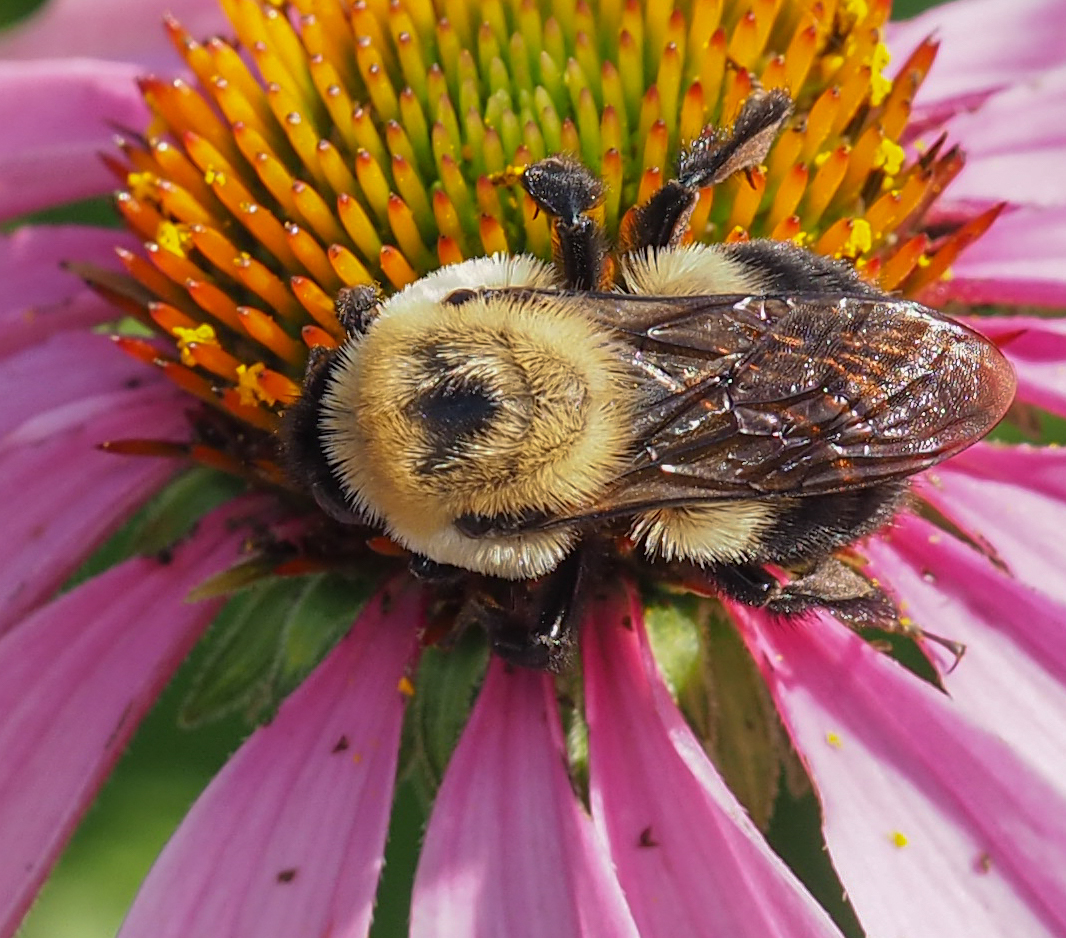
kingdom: Animalia
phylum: Arthropoda
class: Insecta
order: Hymenoptera
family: Apidae
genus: Bombus
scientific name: Bombus griseocollis
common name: Brown-belted bumble bee
